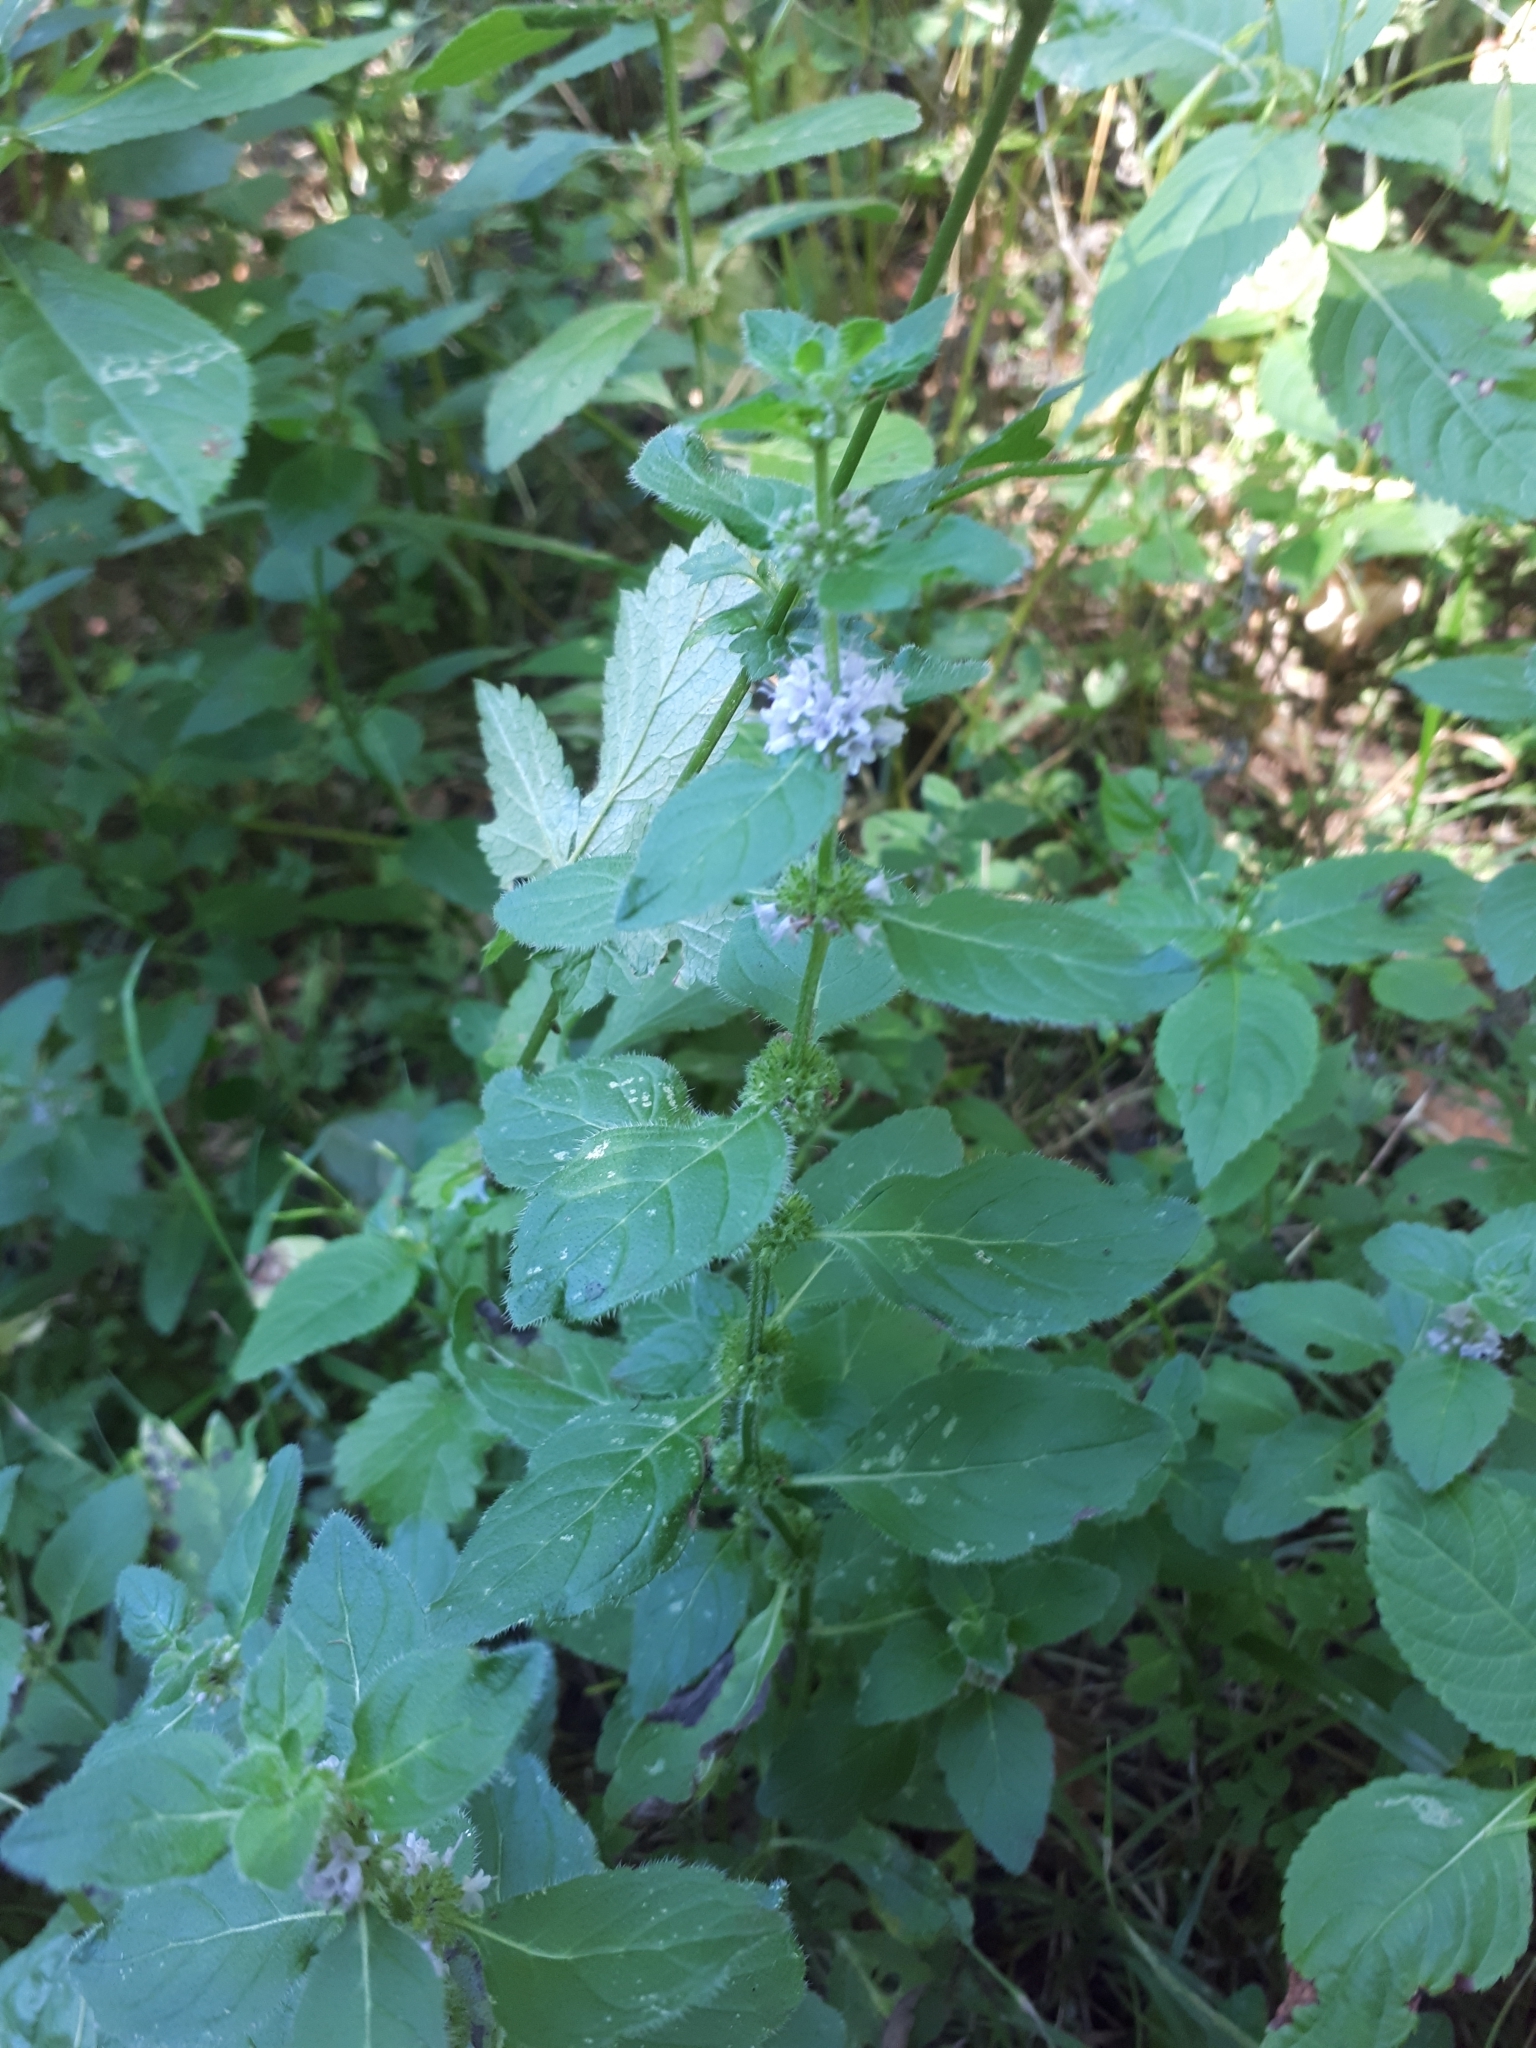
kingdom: Plantae
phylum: Tracheophyta
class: Magnoliopsida
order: Lamiales
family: Lamiaceae
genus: Mentha
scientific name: Mentha arvensis
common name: Corn mint
